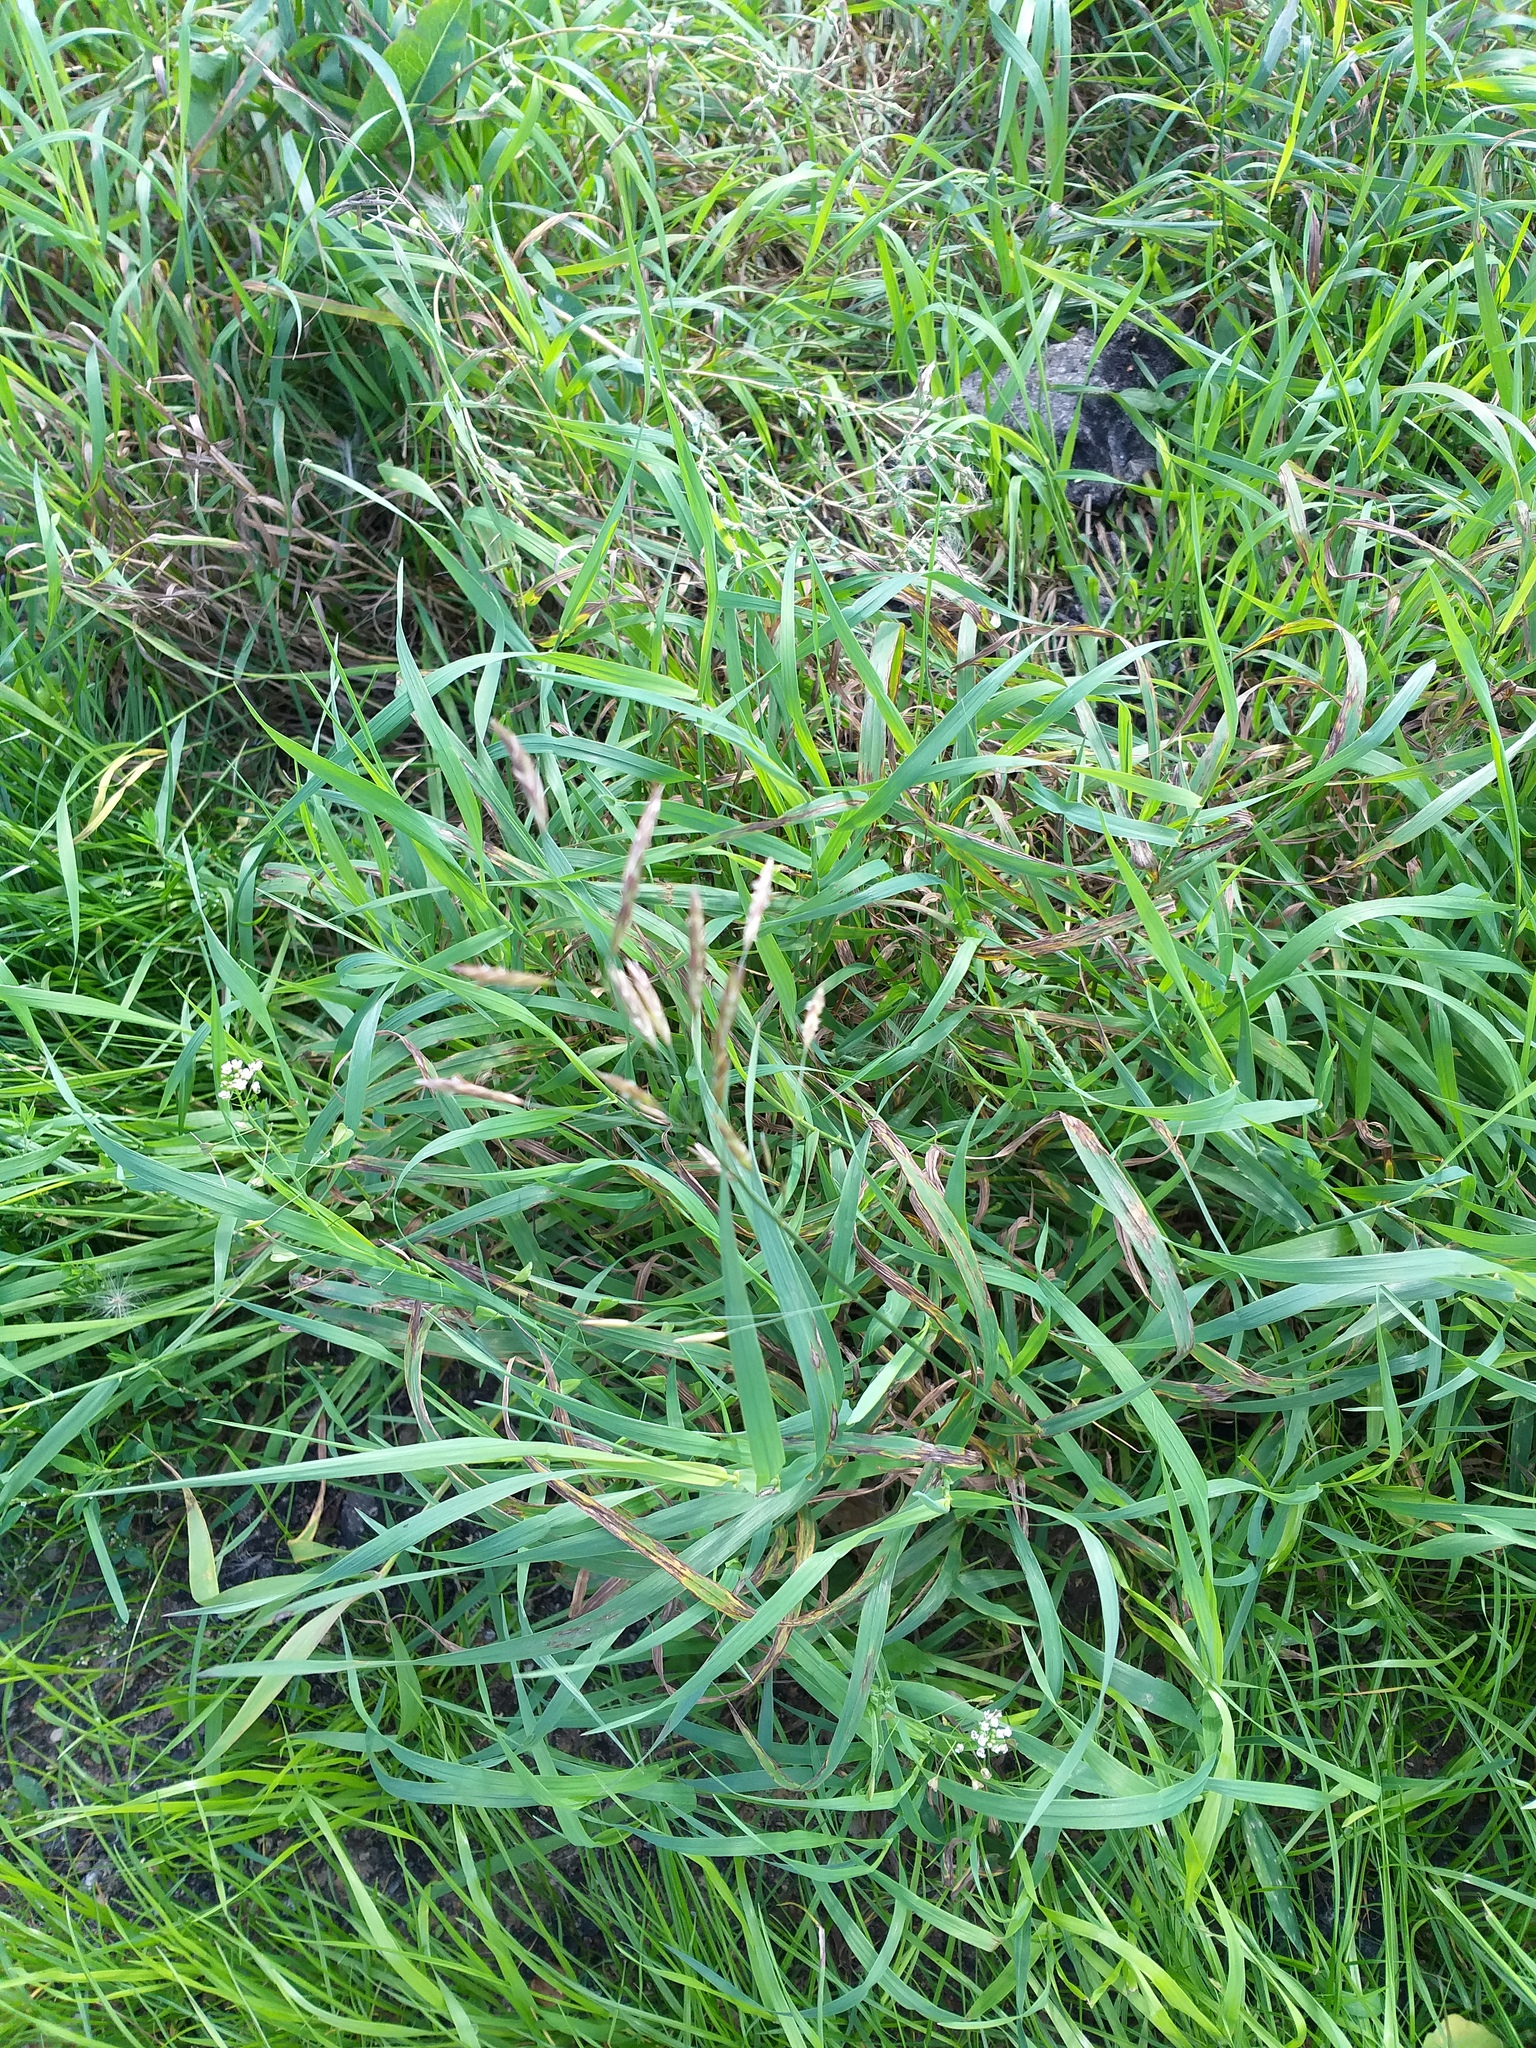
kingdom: Plantae
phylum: Tracheophyta
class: Liliopsida
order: Poales
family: Poaceae
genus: Bromus
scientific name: Bromus inermis
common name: Smooth brome
